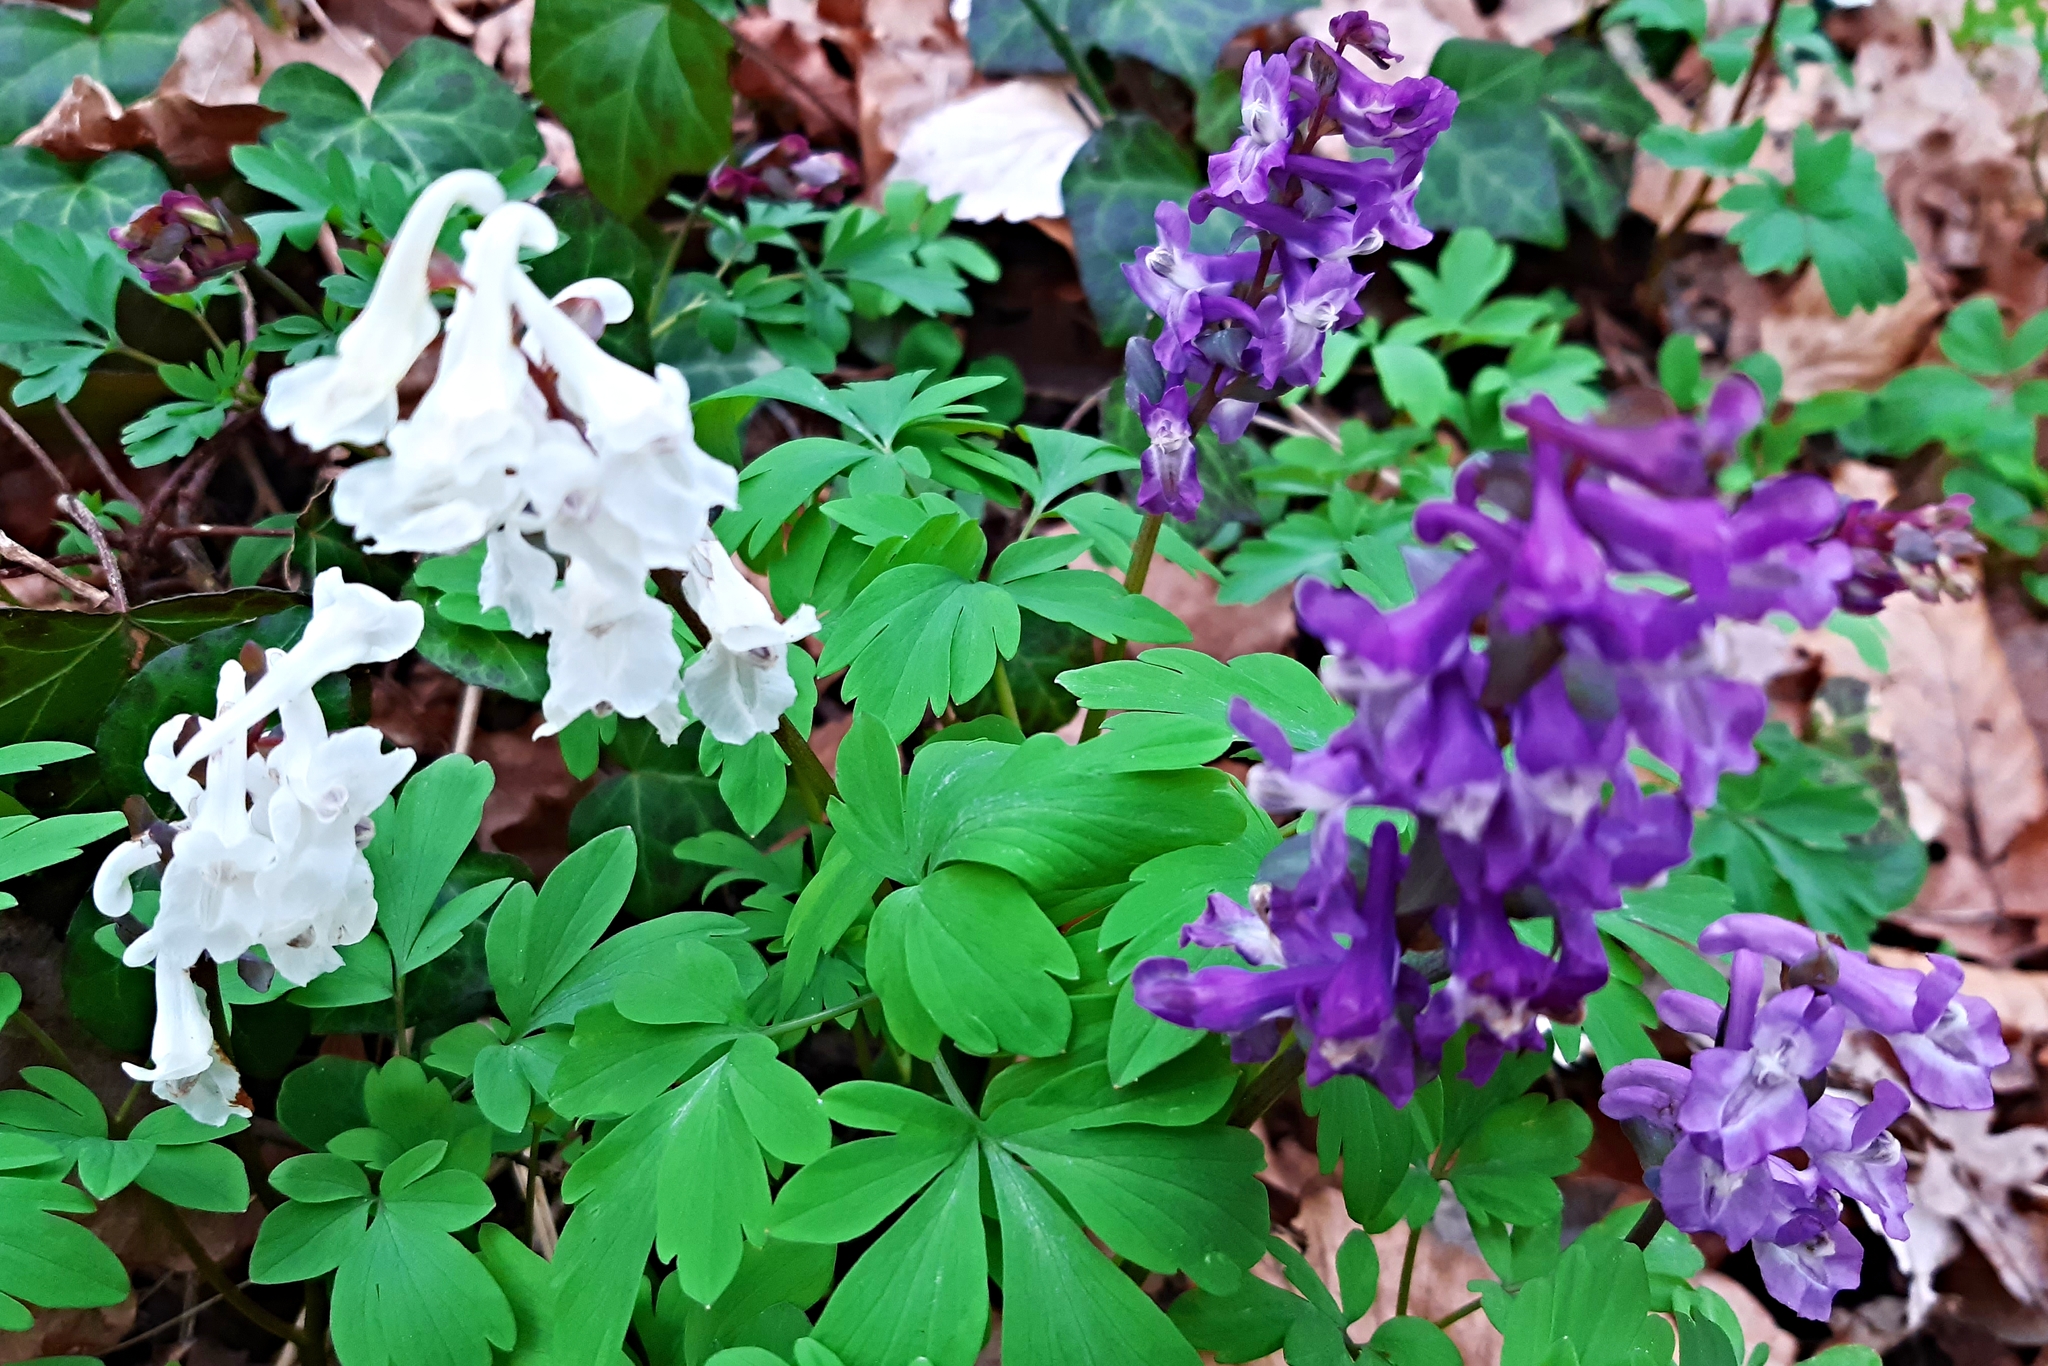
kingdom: Plantae
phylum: Tracheophyta
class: Magnoliopsida
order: Ranunculales
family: Papaveraceae
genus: Corydalis
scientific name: Corydalis cava
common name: Hollowroot
